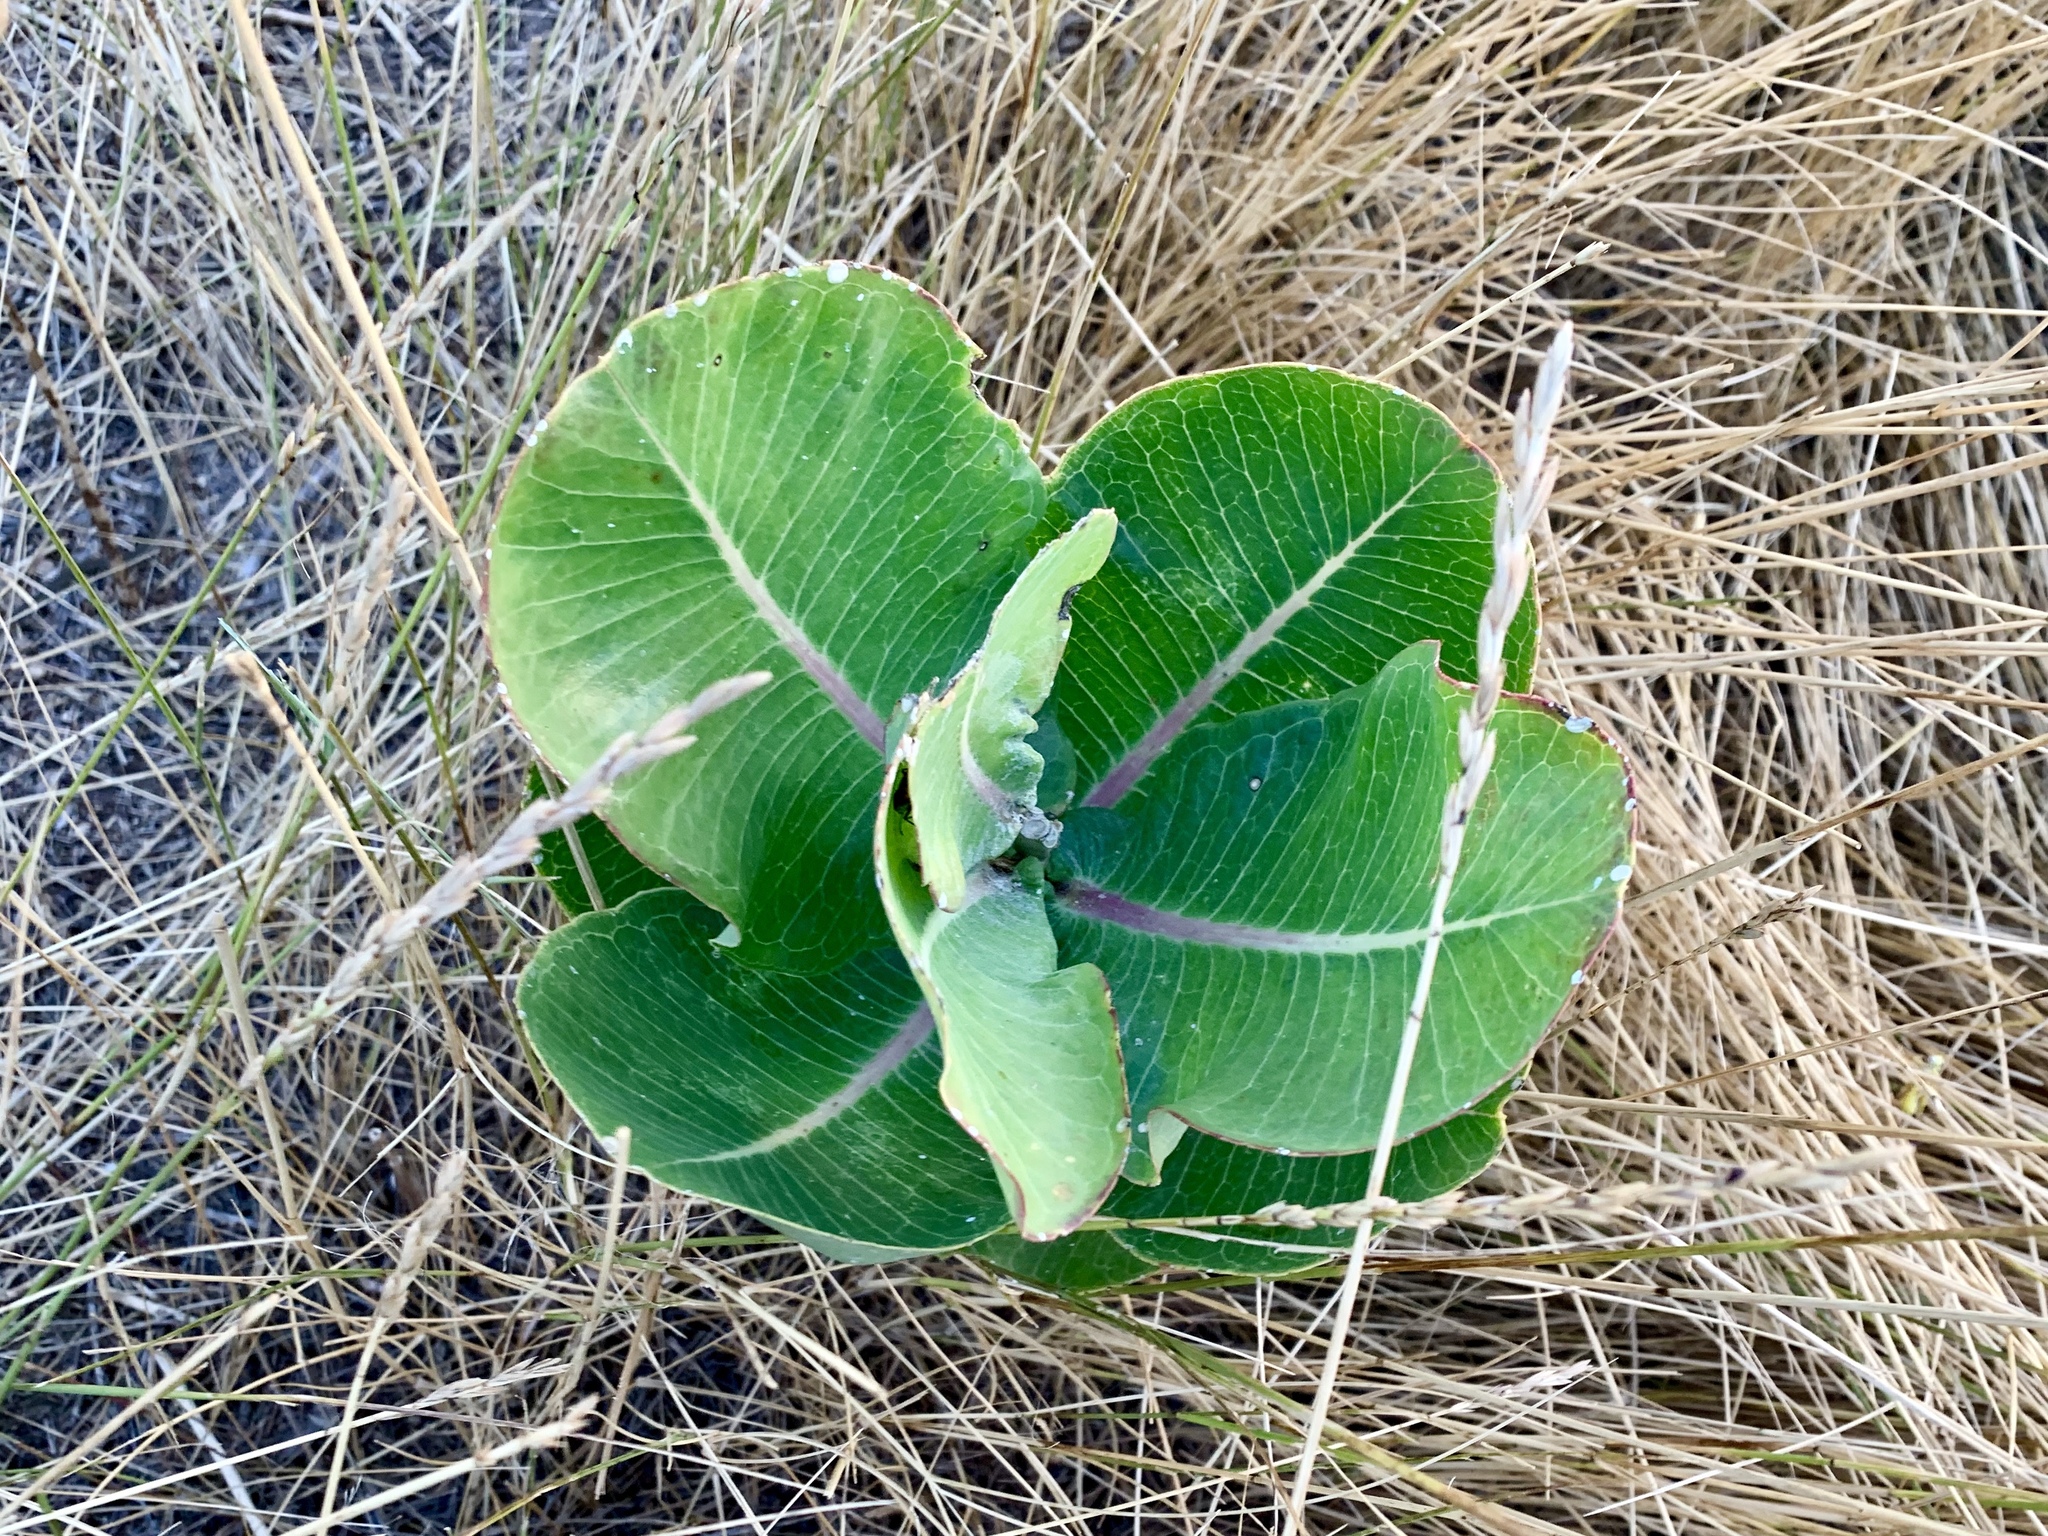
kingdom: Plantae
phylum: Tracheophyta
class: Magnoliopsida
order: Gentianales
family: Apocynaceae
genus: Asclepias
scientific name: Asclepias latifolia
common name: Broadleaf milkweed
